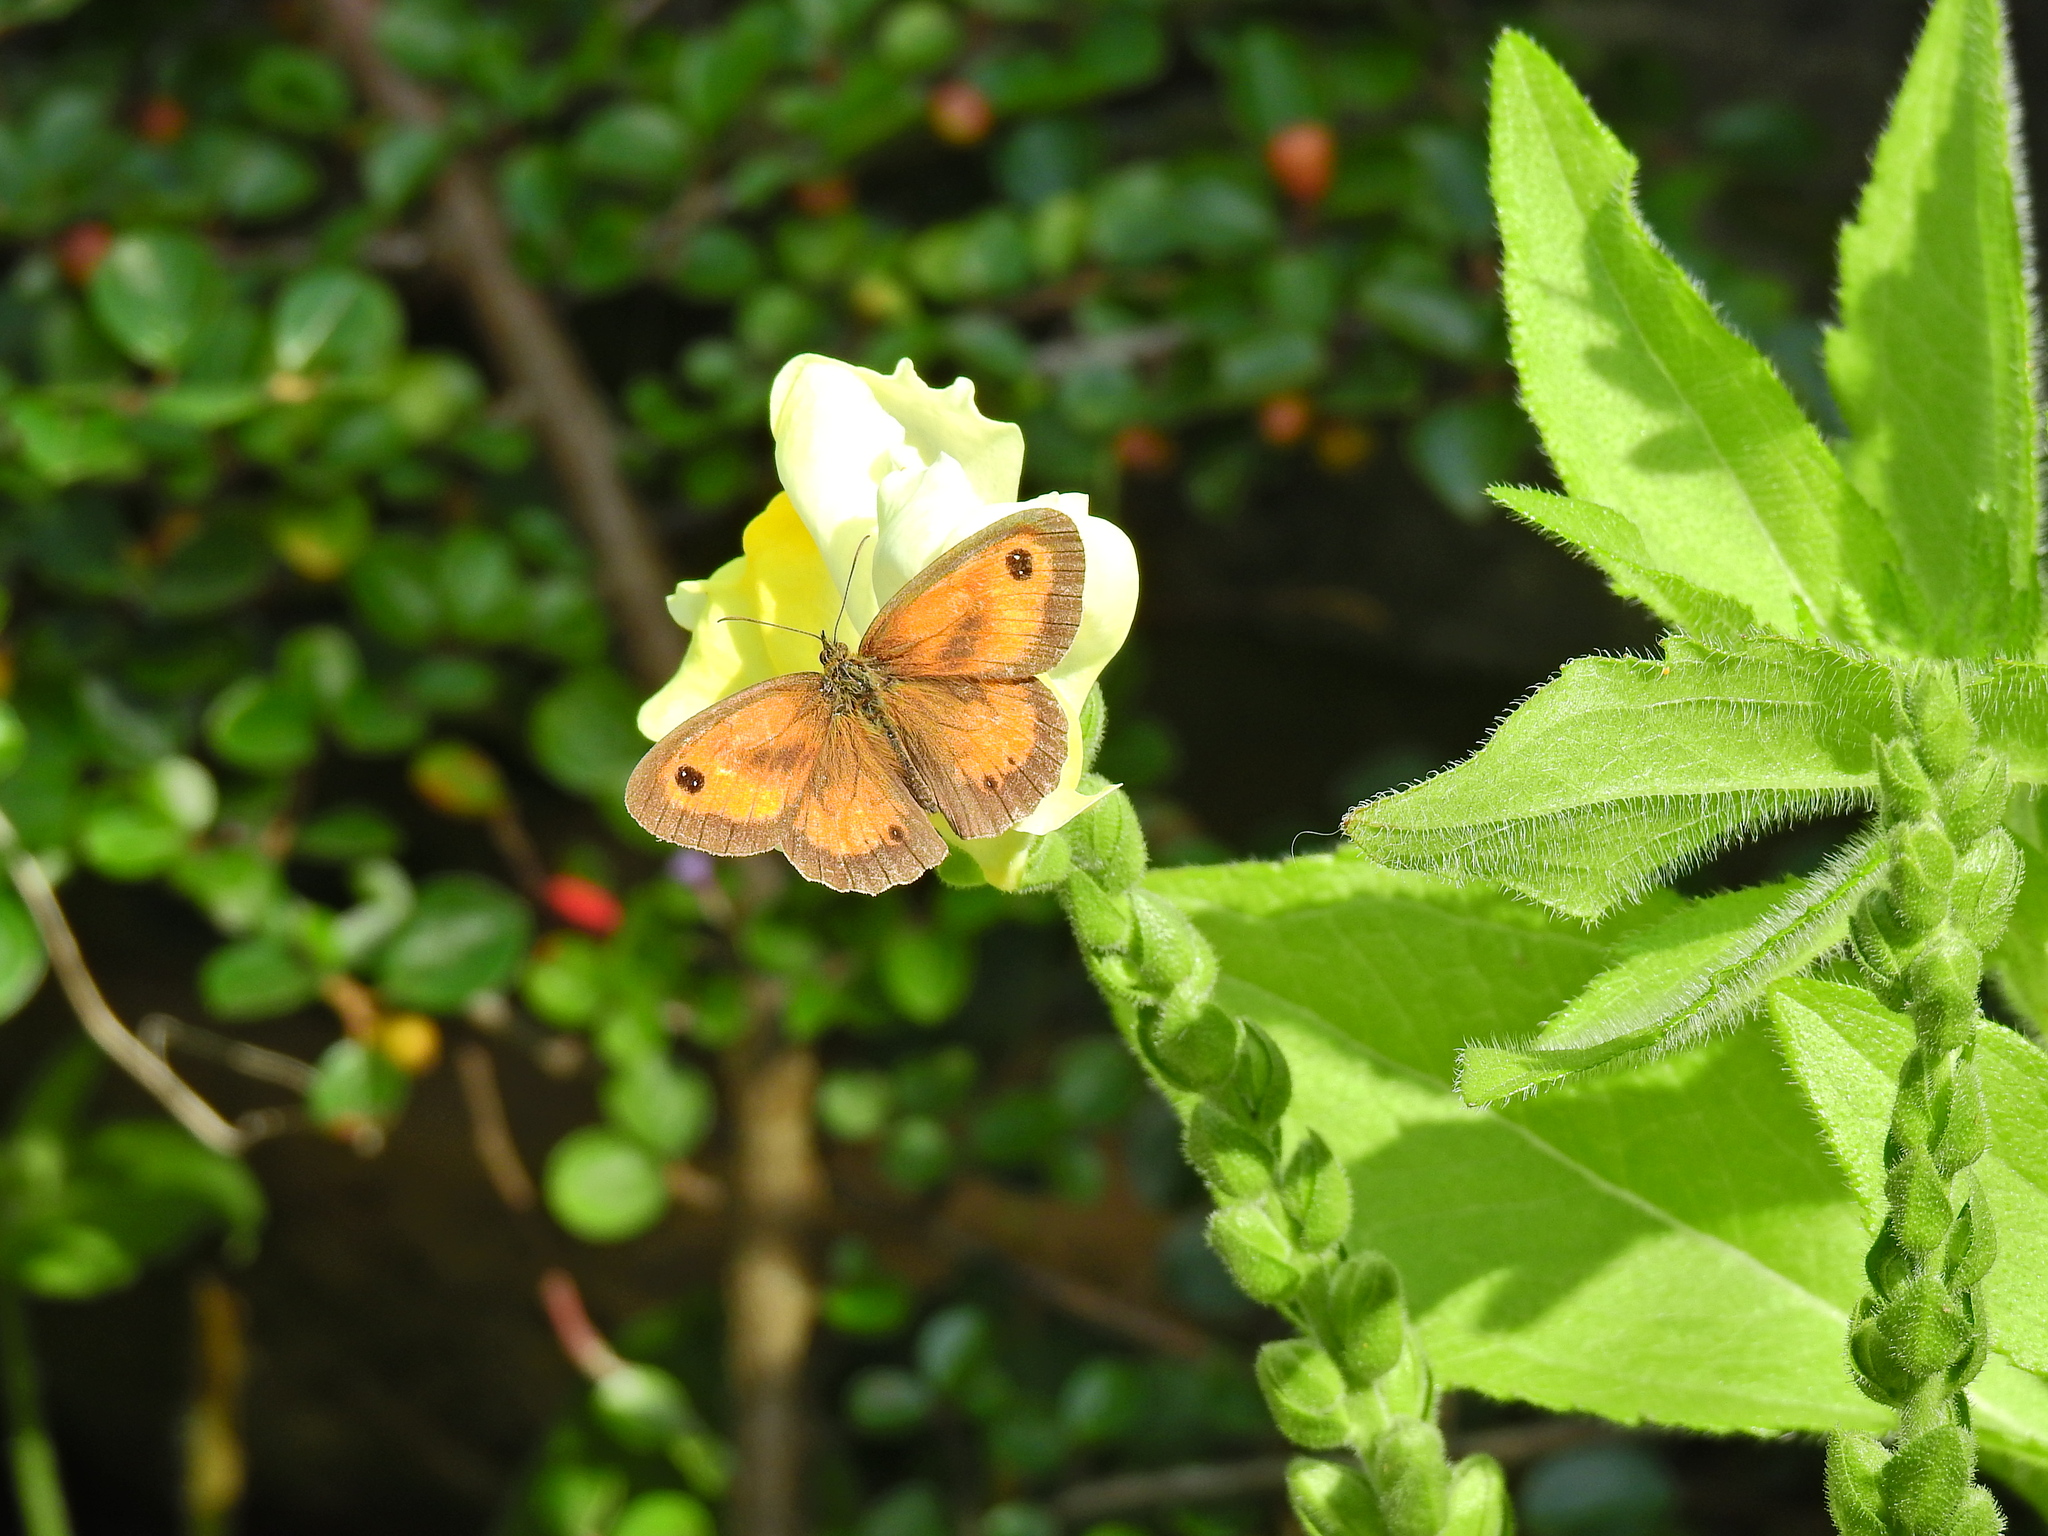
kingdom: Animalia
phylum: Arthropoda
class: Insecta
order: Lepidoptera
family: Nymphalidae
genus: Pyronia
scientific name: Pyronia tithonus
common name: Gatekeeper
